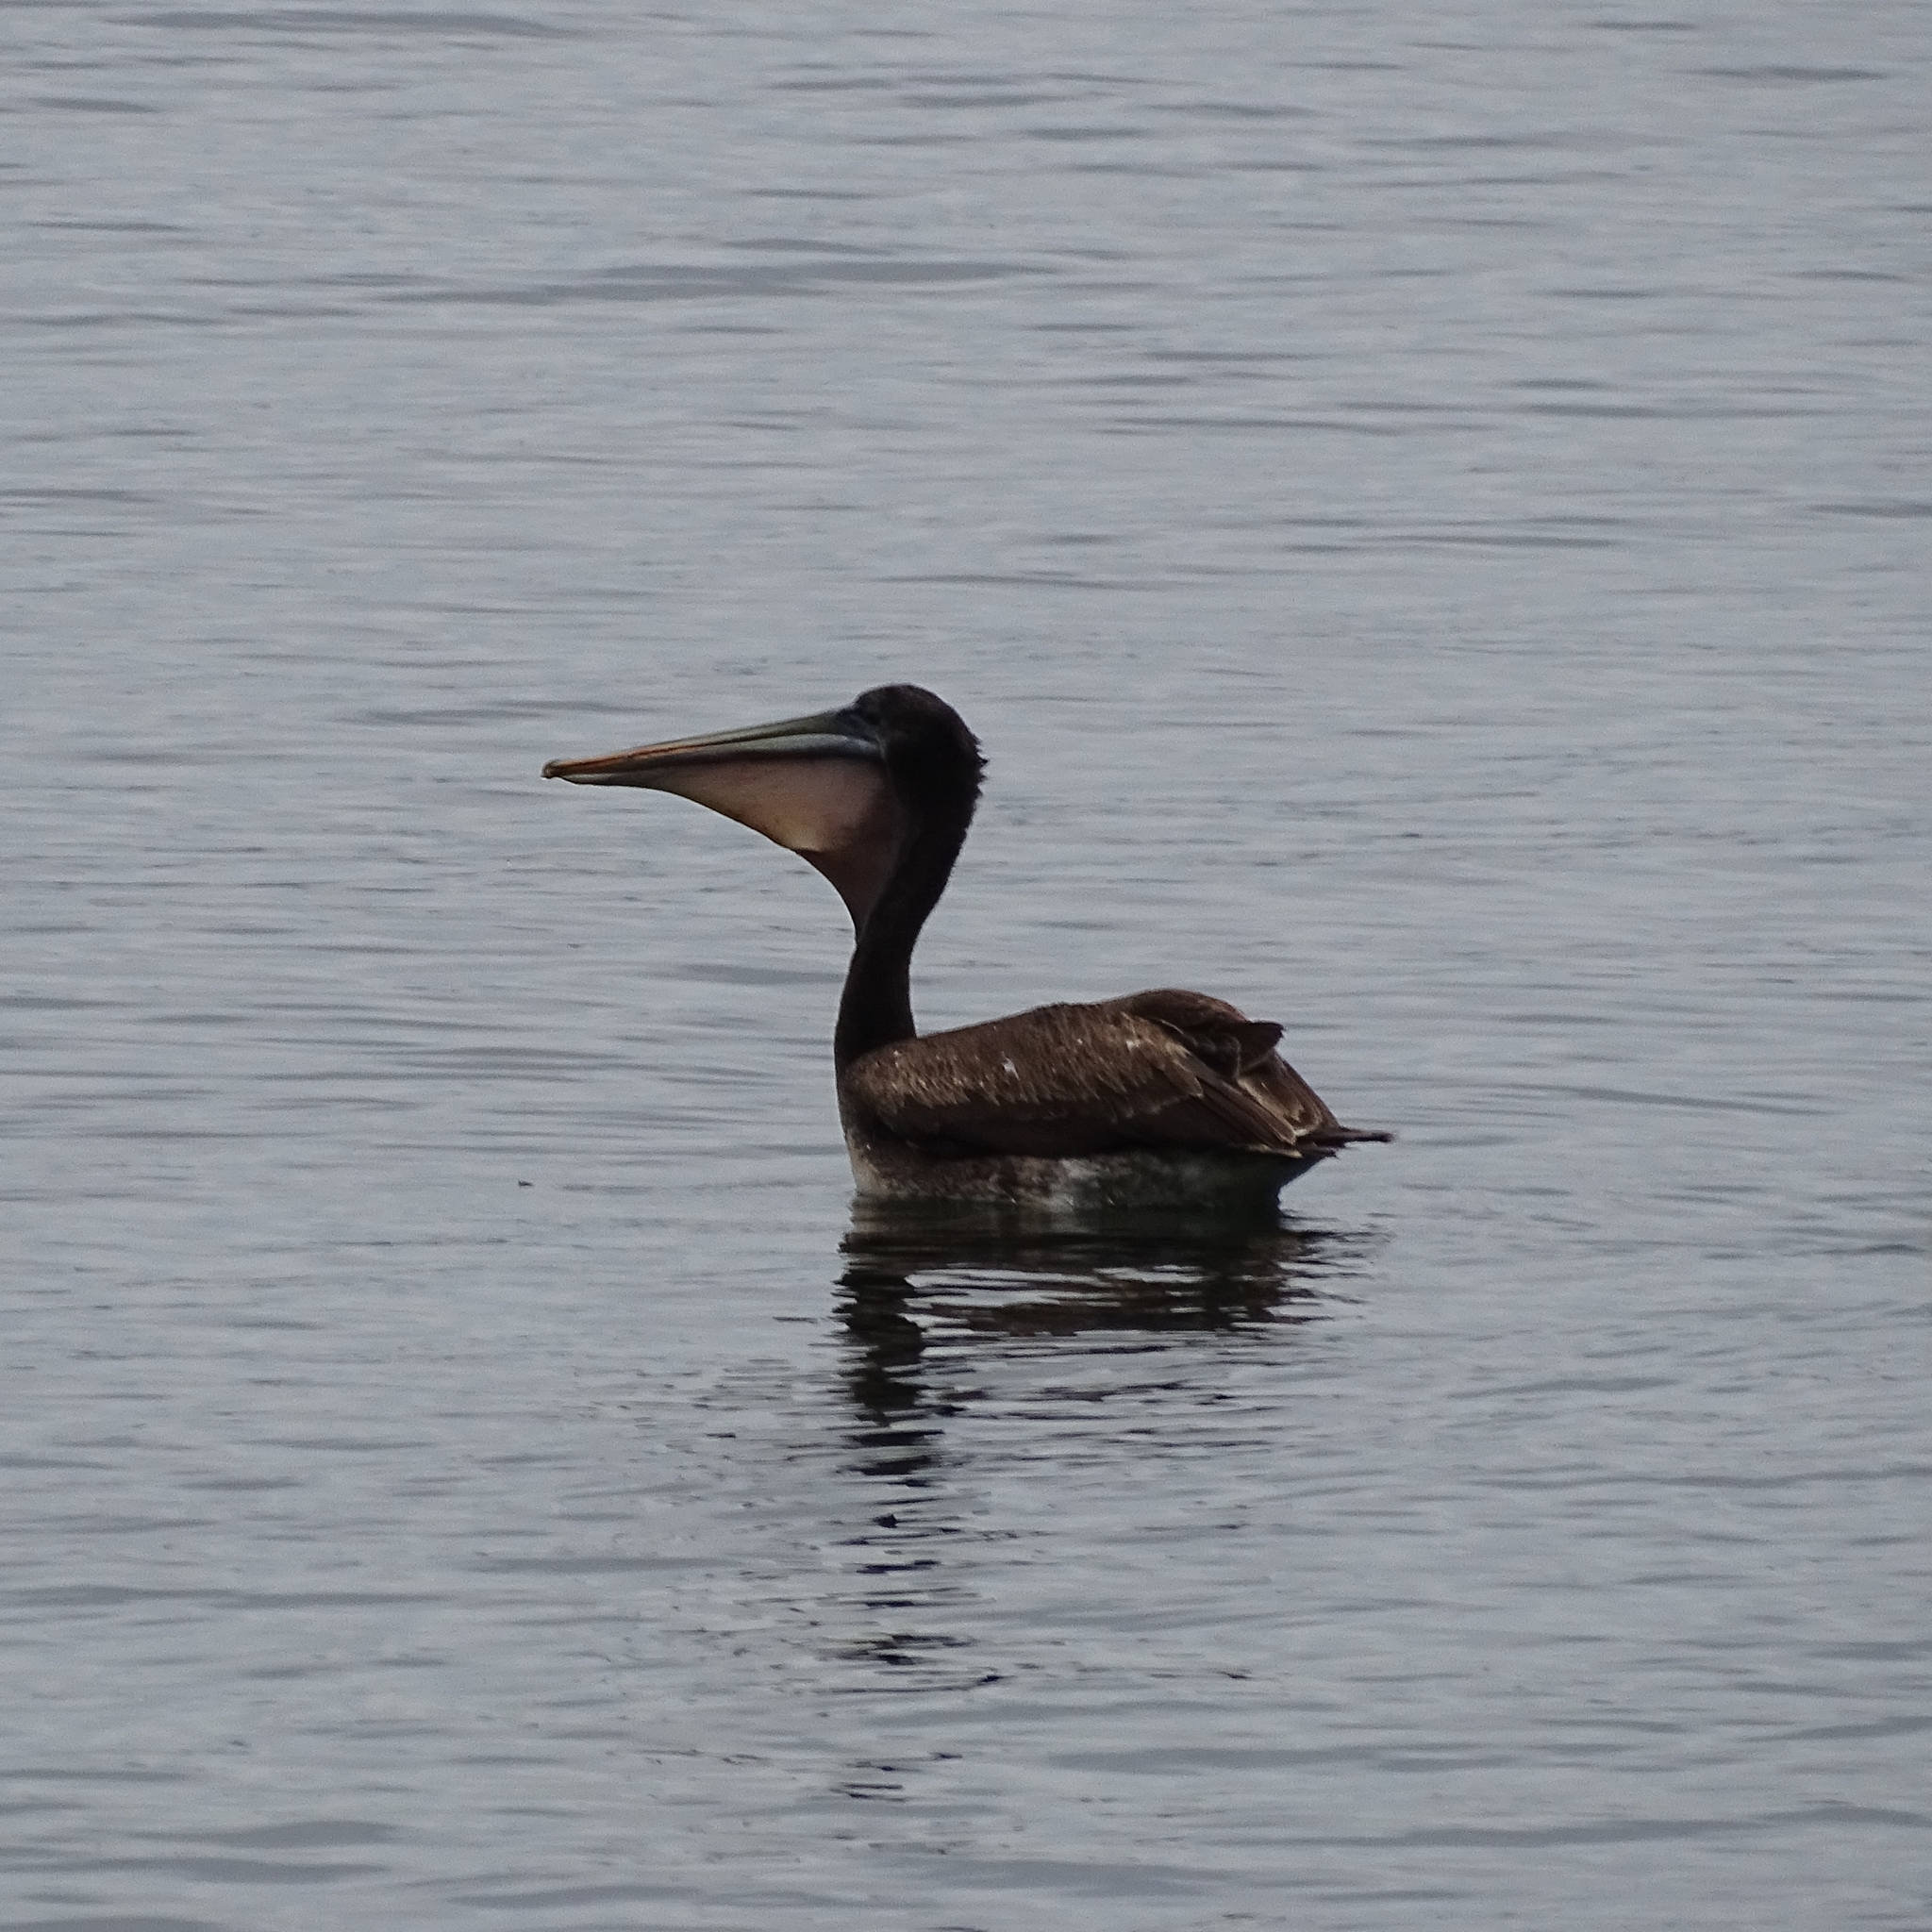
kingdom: Animalia
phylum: Chordata
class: Aves
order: Pelecaniformes
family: Pelecanidae
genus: Pelecanus
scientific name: Pelecanus thagus
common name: Peruvian pelican
